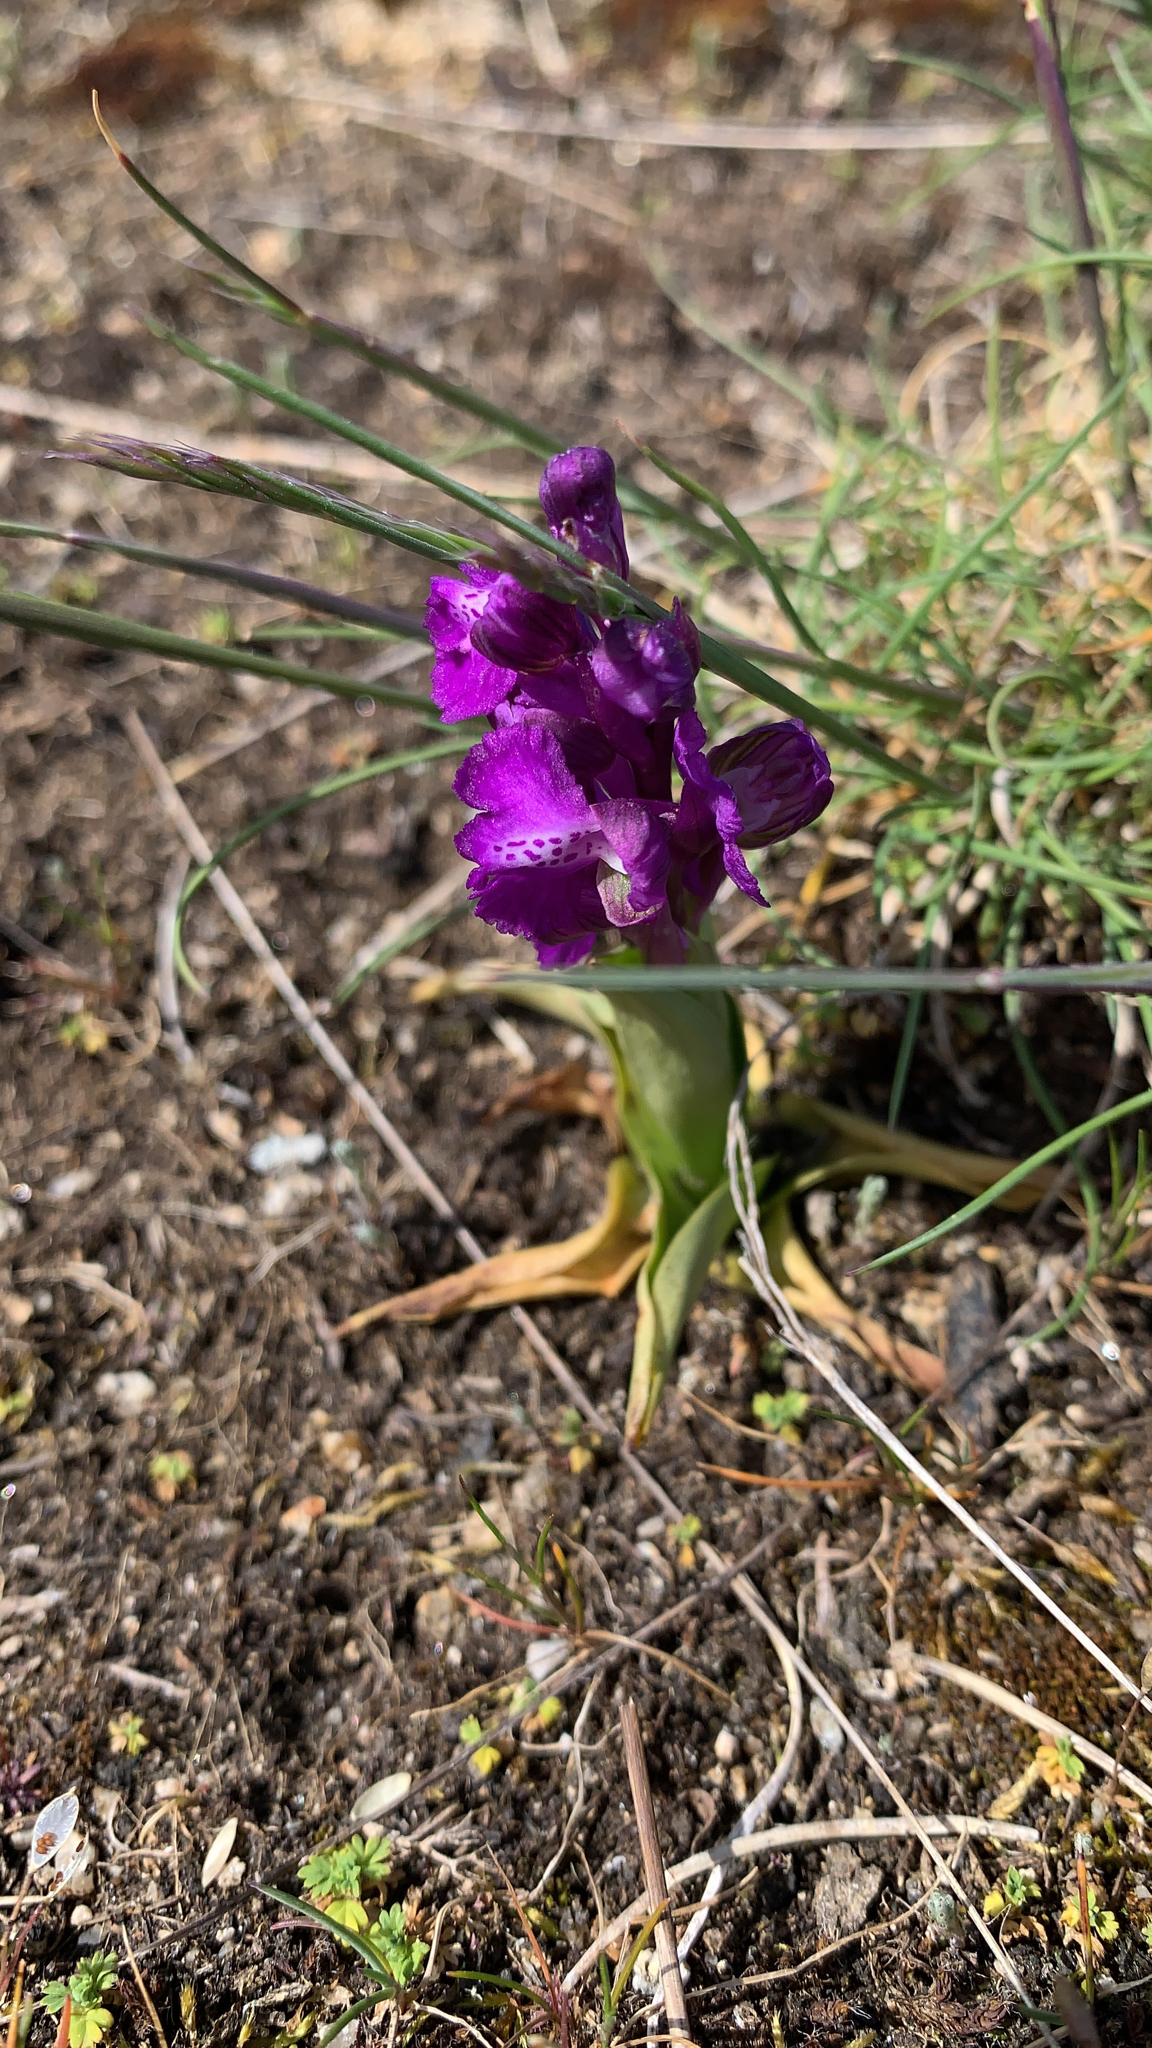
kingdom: Plantae
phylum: Tracheophyta
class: Liliopsida
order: Asparagales
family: Orchidaceae
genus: Anacamptis
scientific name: Anacamptis morio
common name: Green-winged orchid
